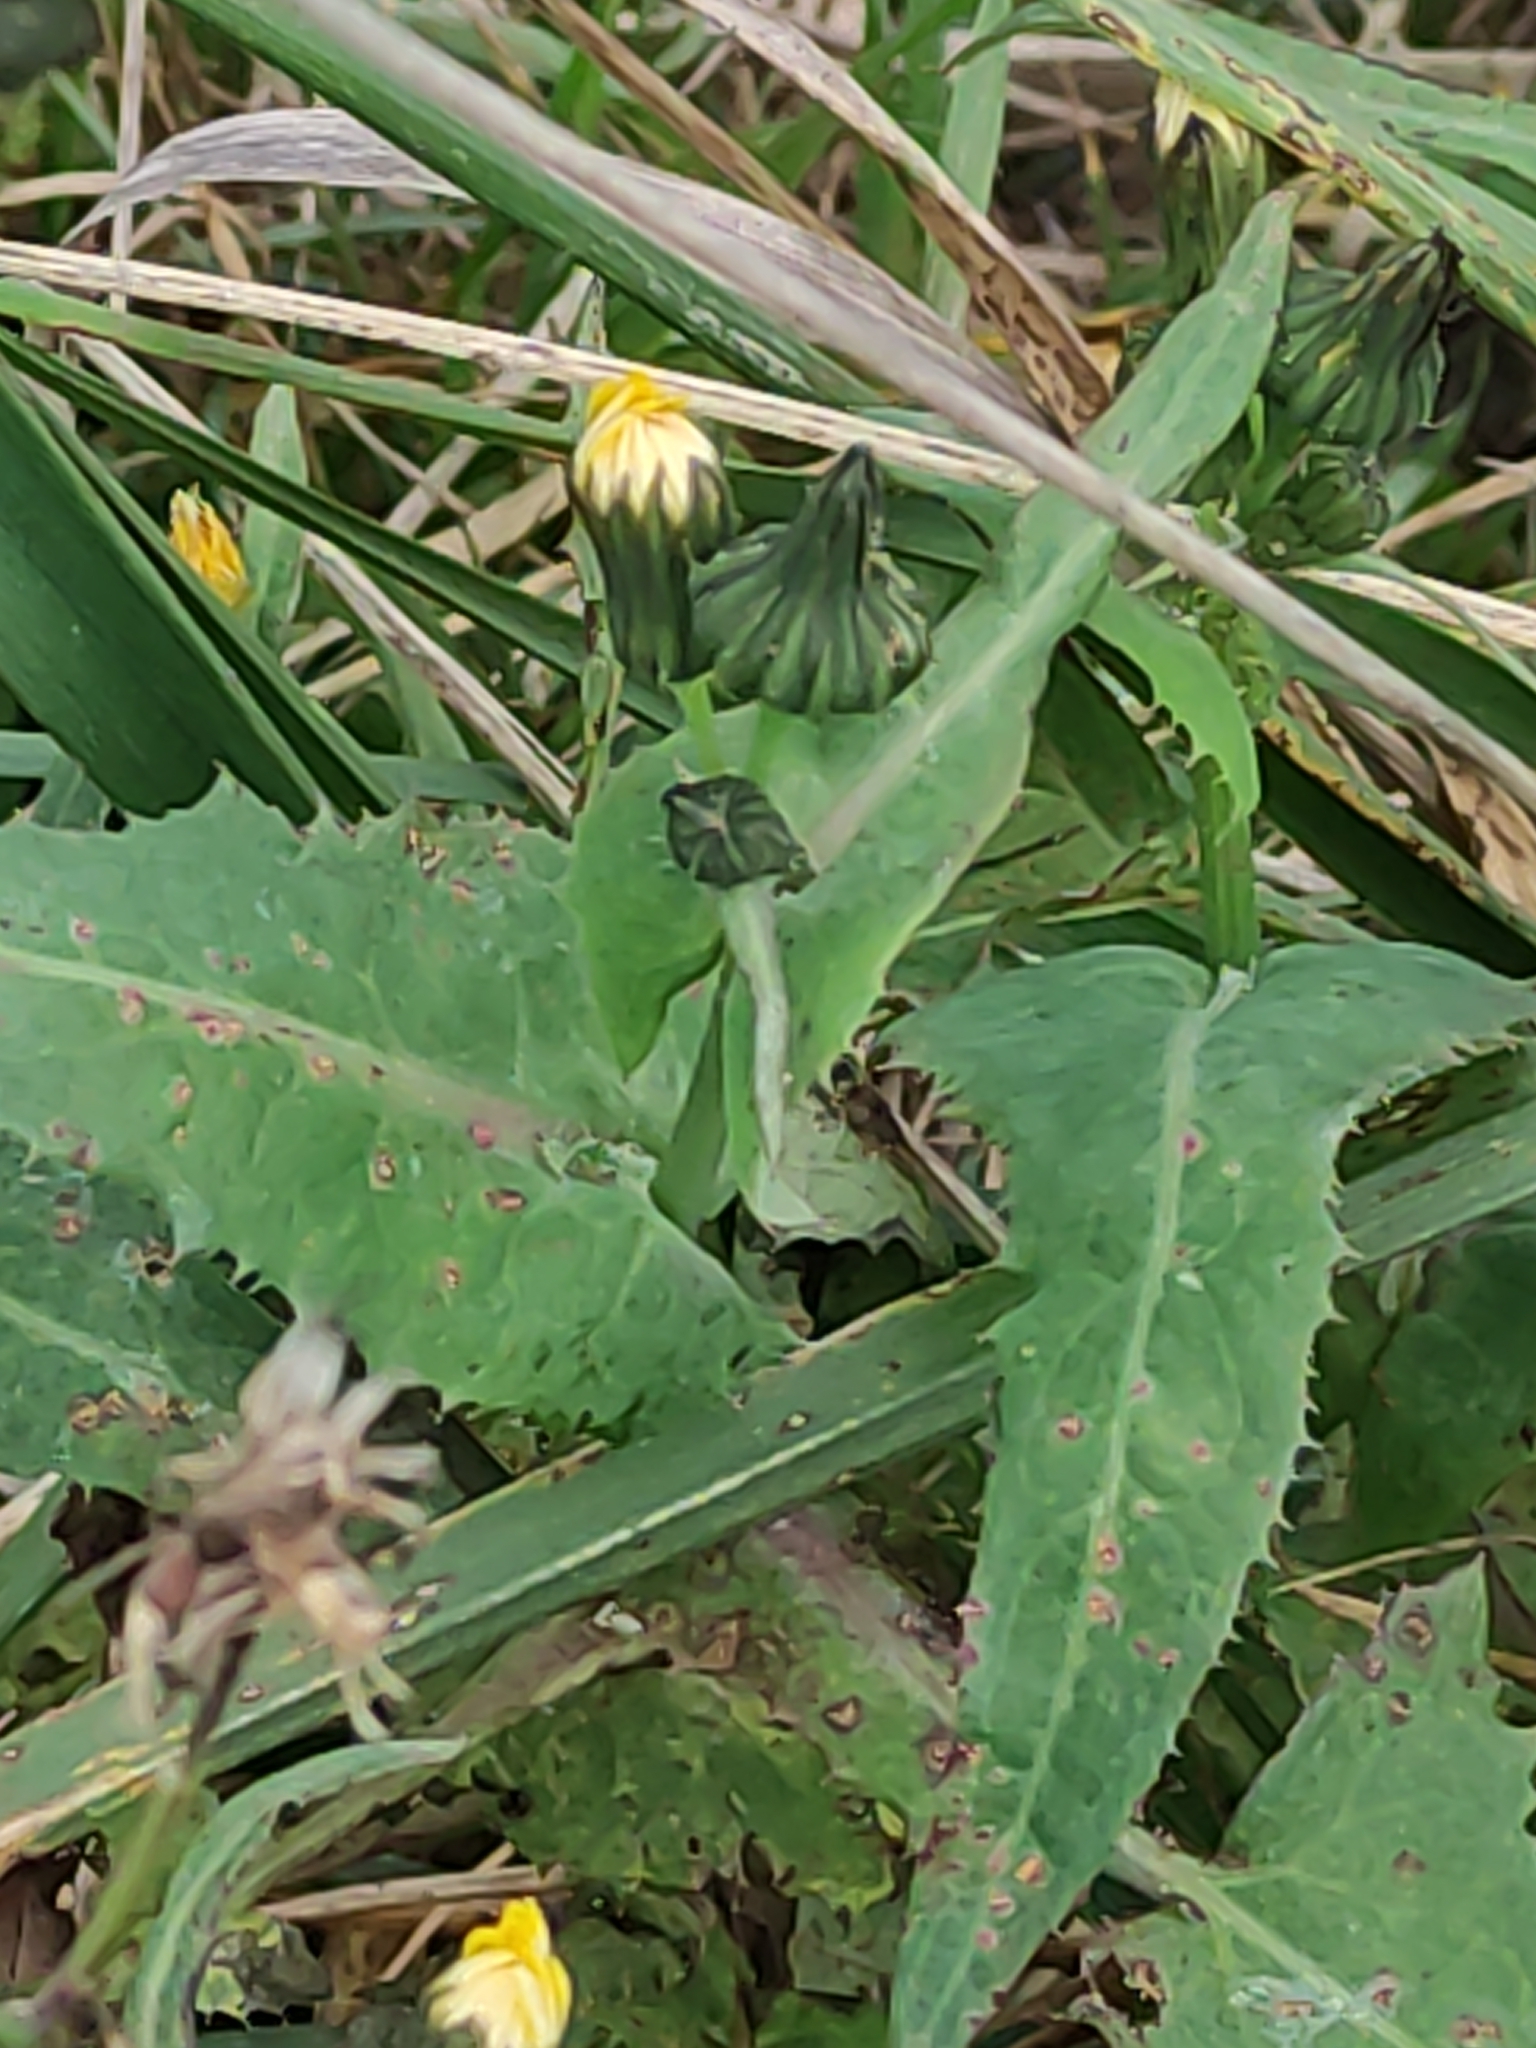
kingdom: Plantae
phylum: Tracheophyta
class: Magnoliopsida
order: Asterales
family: Asteraceae
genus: Sonchus
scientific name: Sonchus oleraceus
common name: Common sowthistle
